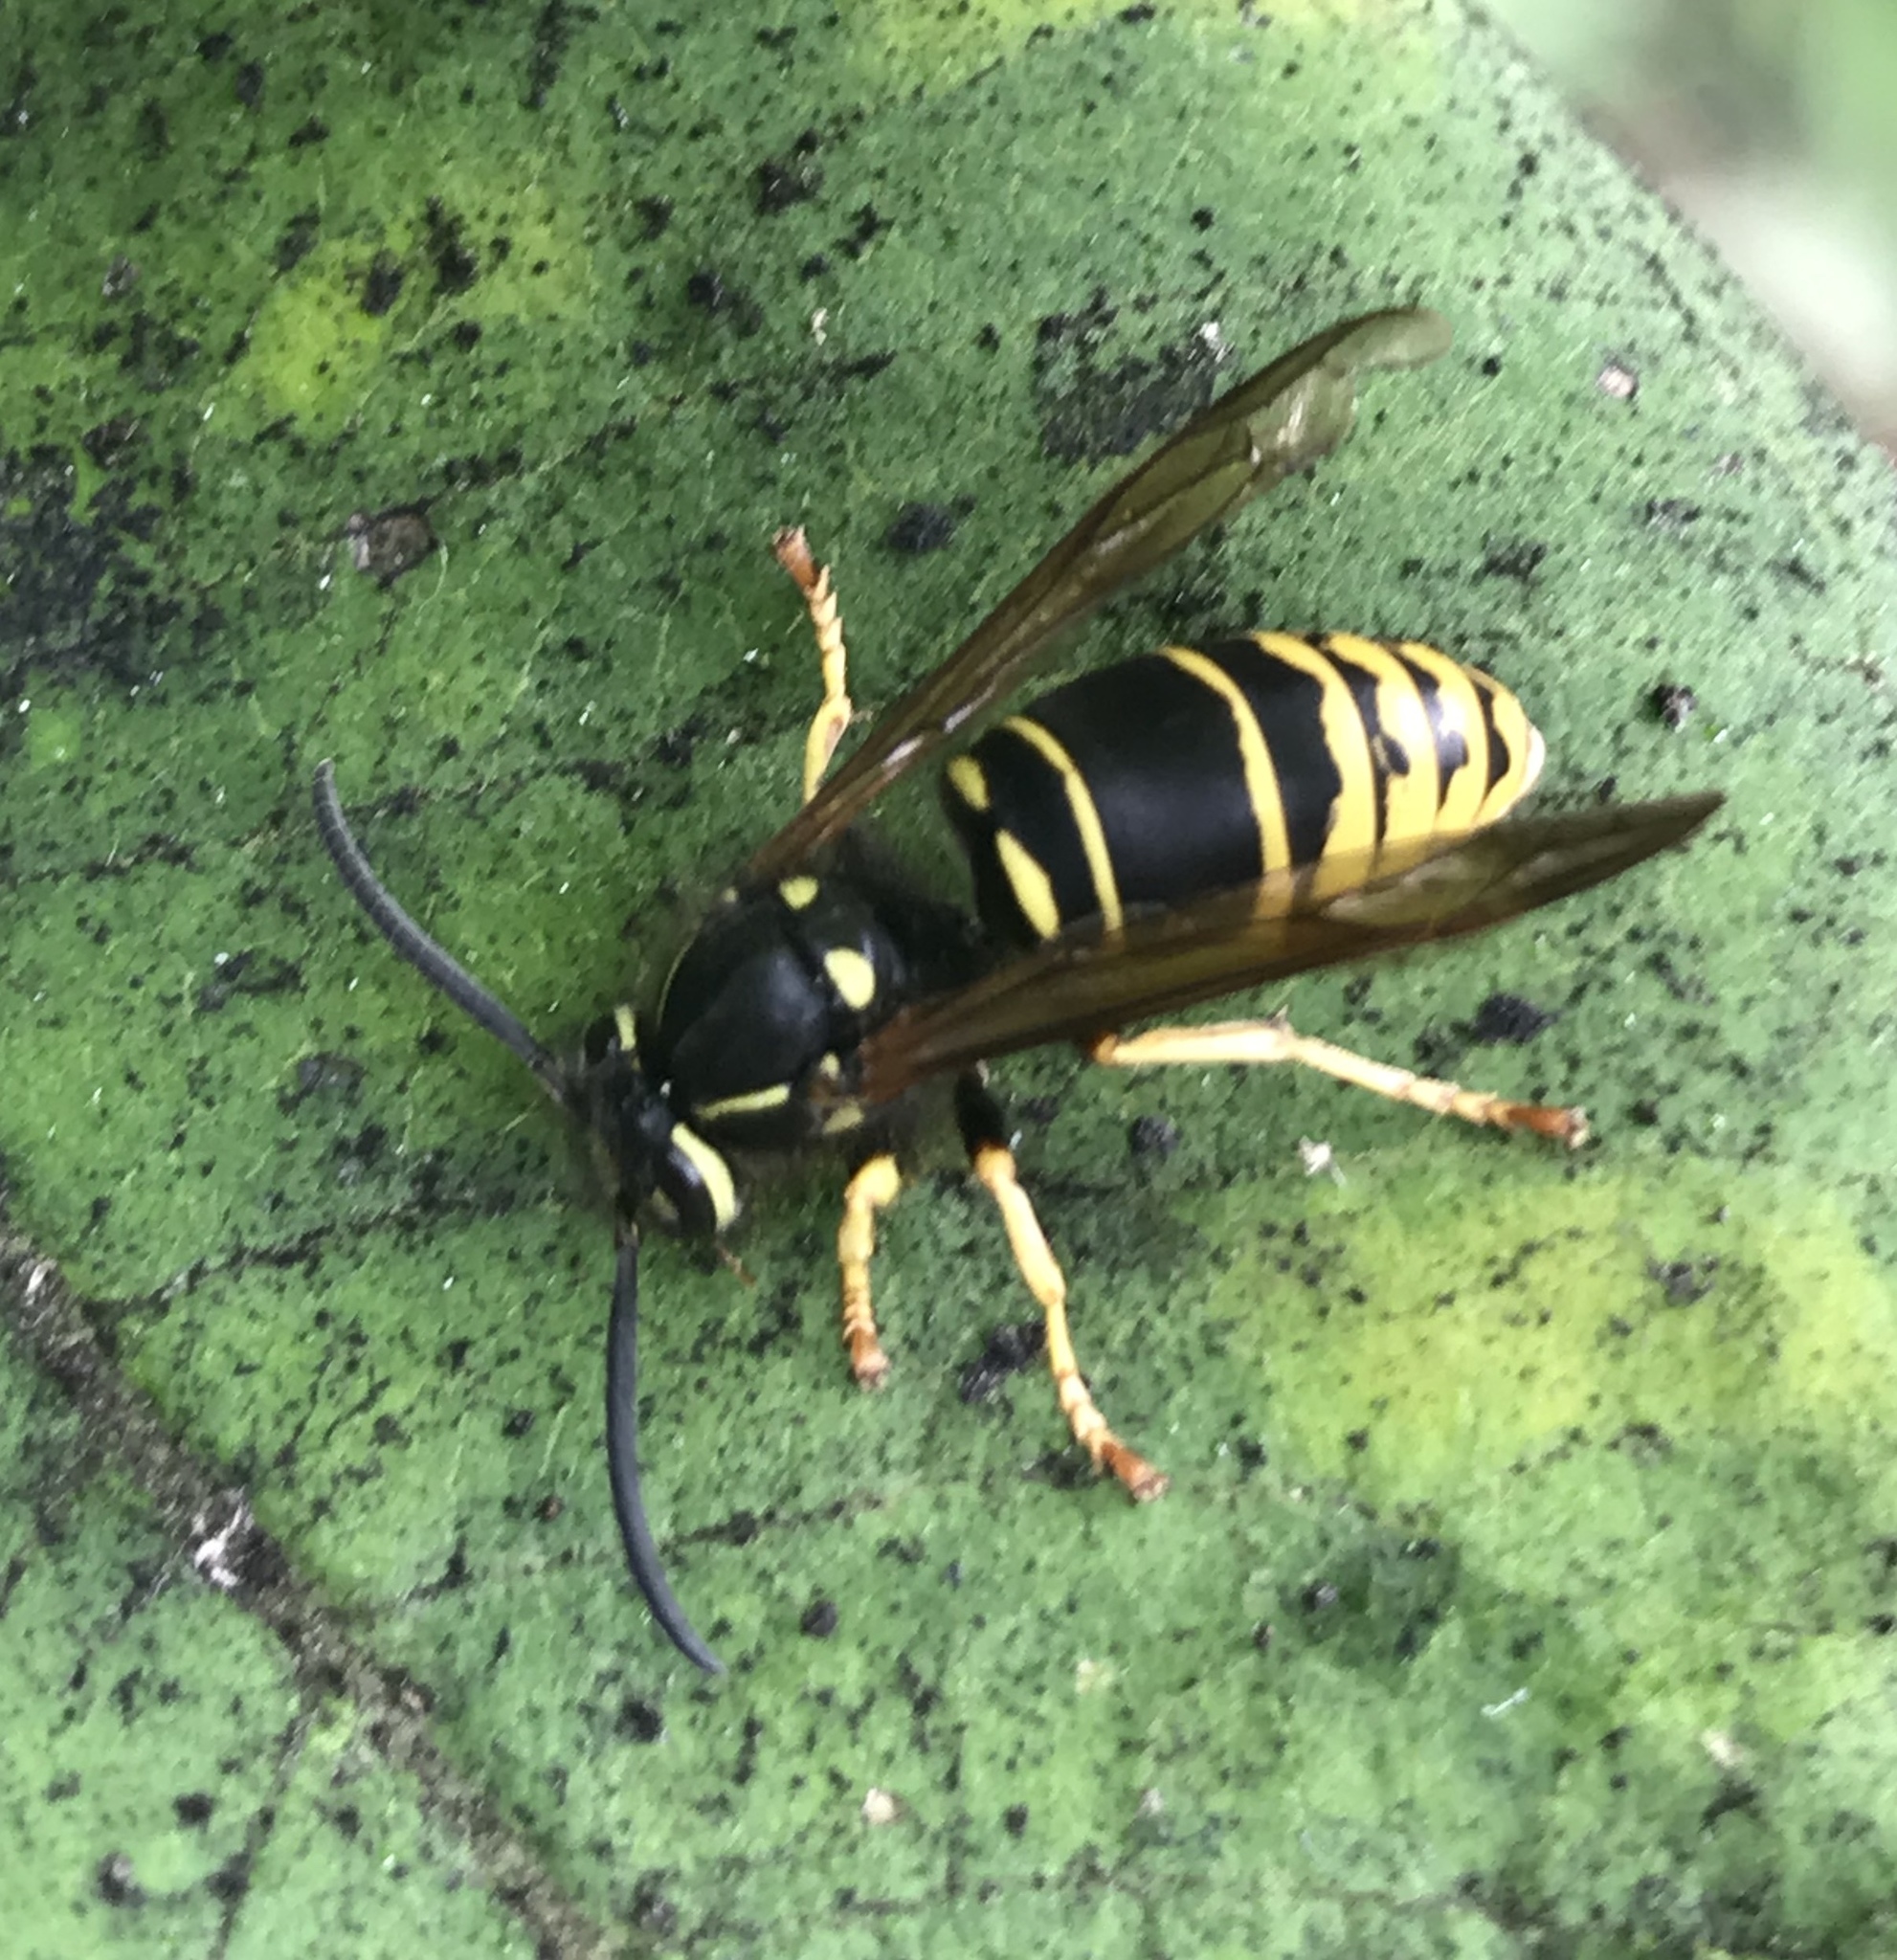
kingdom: Animalia
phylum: Arthropoda
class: Insecta
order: Hymenoptera
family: Vespidae
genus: Vespula
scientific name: Vespula vidua
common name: Widow yellowjacket
